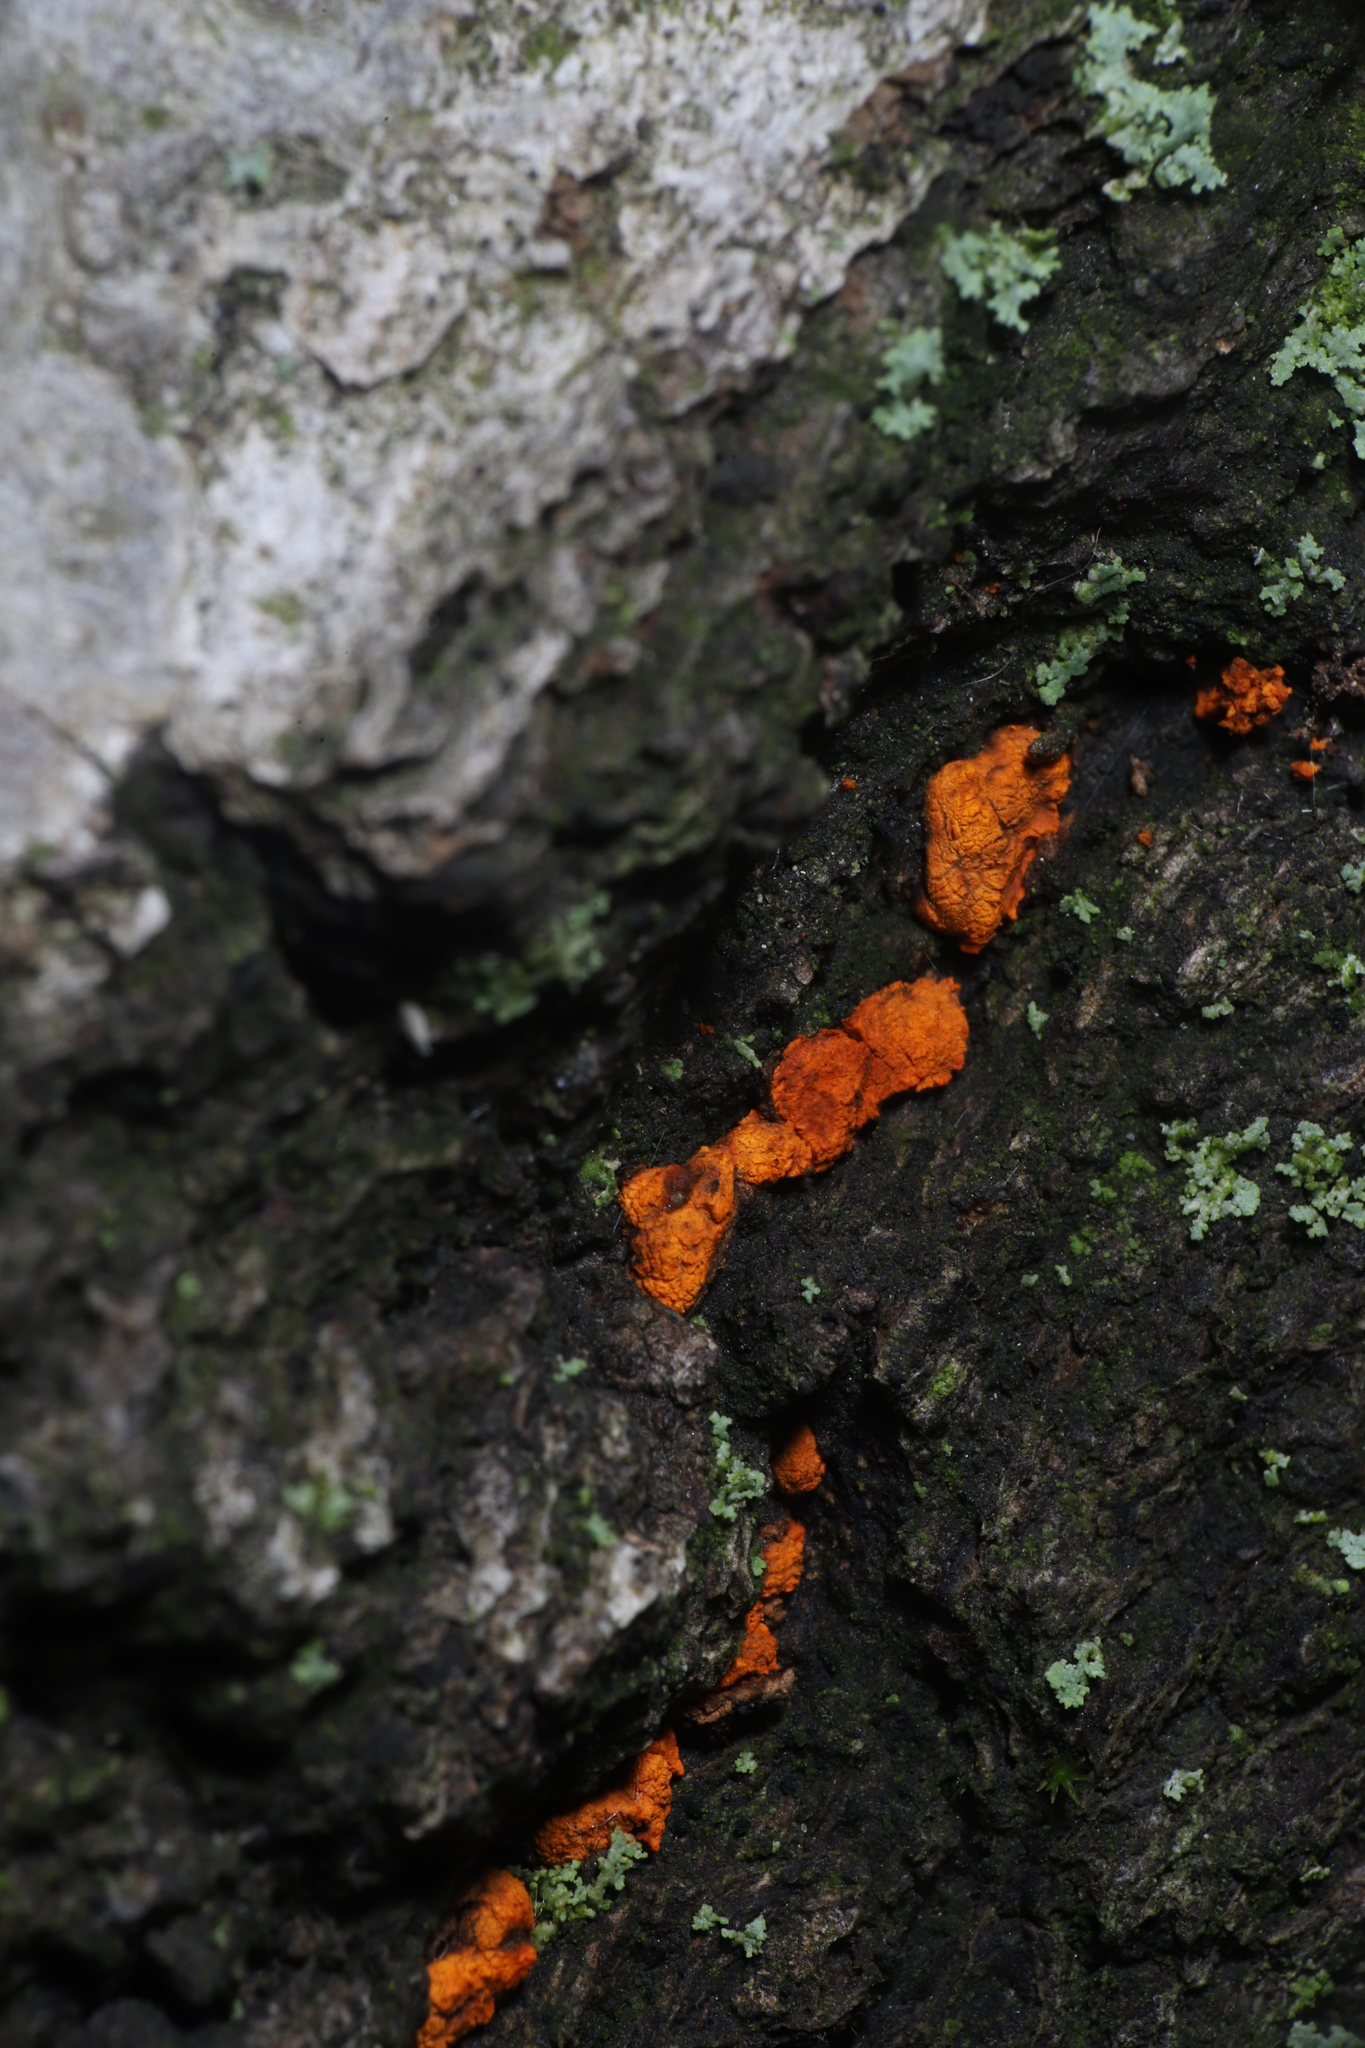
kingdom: Fungi
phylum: Ascomycota
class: Sordariomycetes
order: Diaporthales
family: Cryphonectriaceae
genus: Amphilogia
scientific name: Amphilogia gyrosa
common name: Orange hobnail canker
